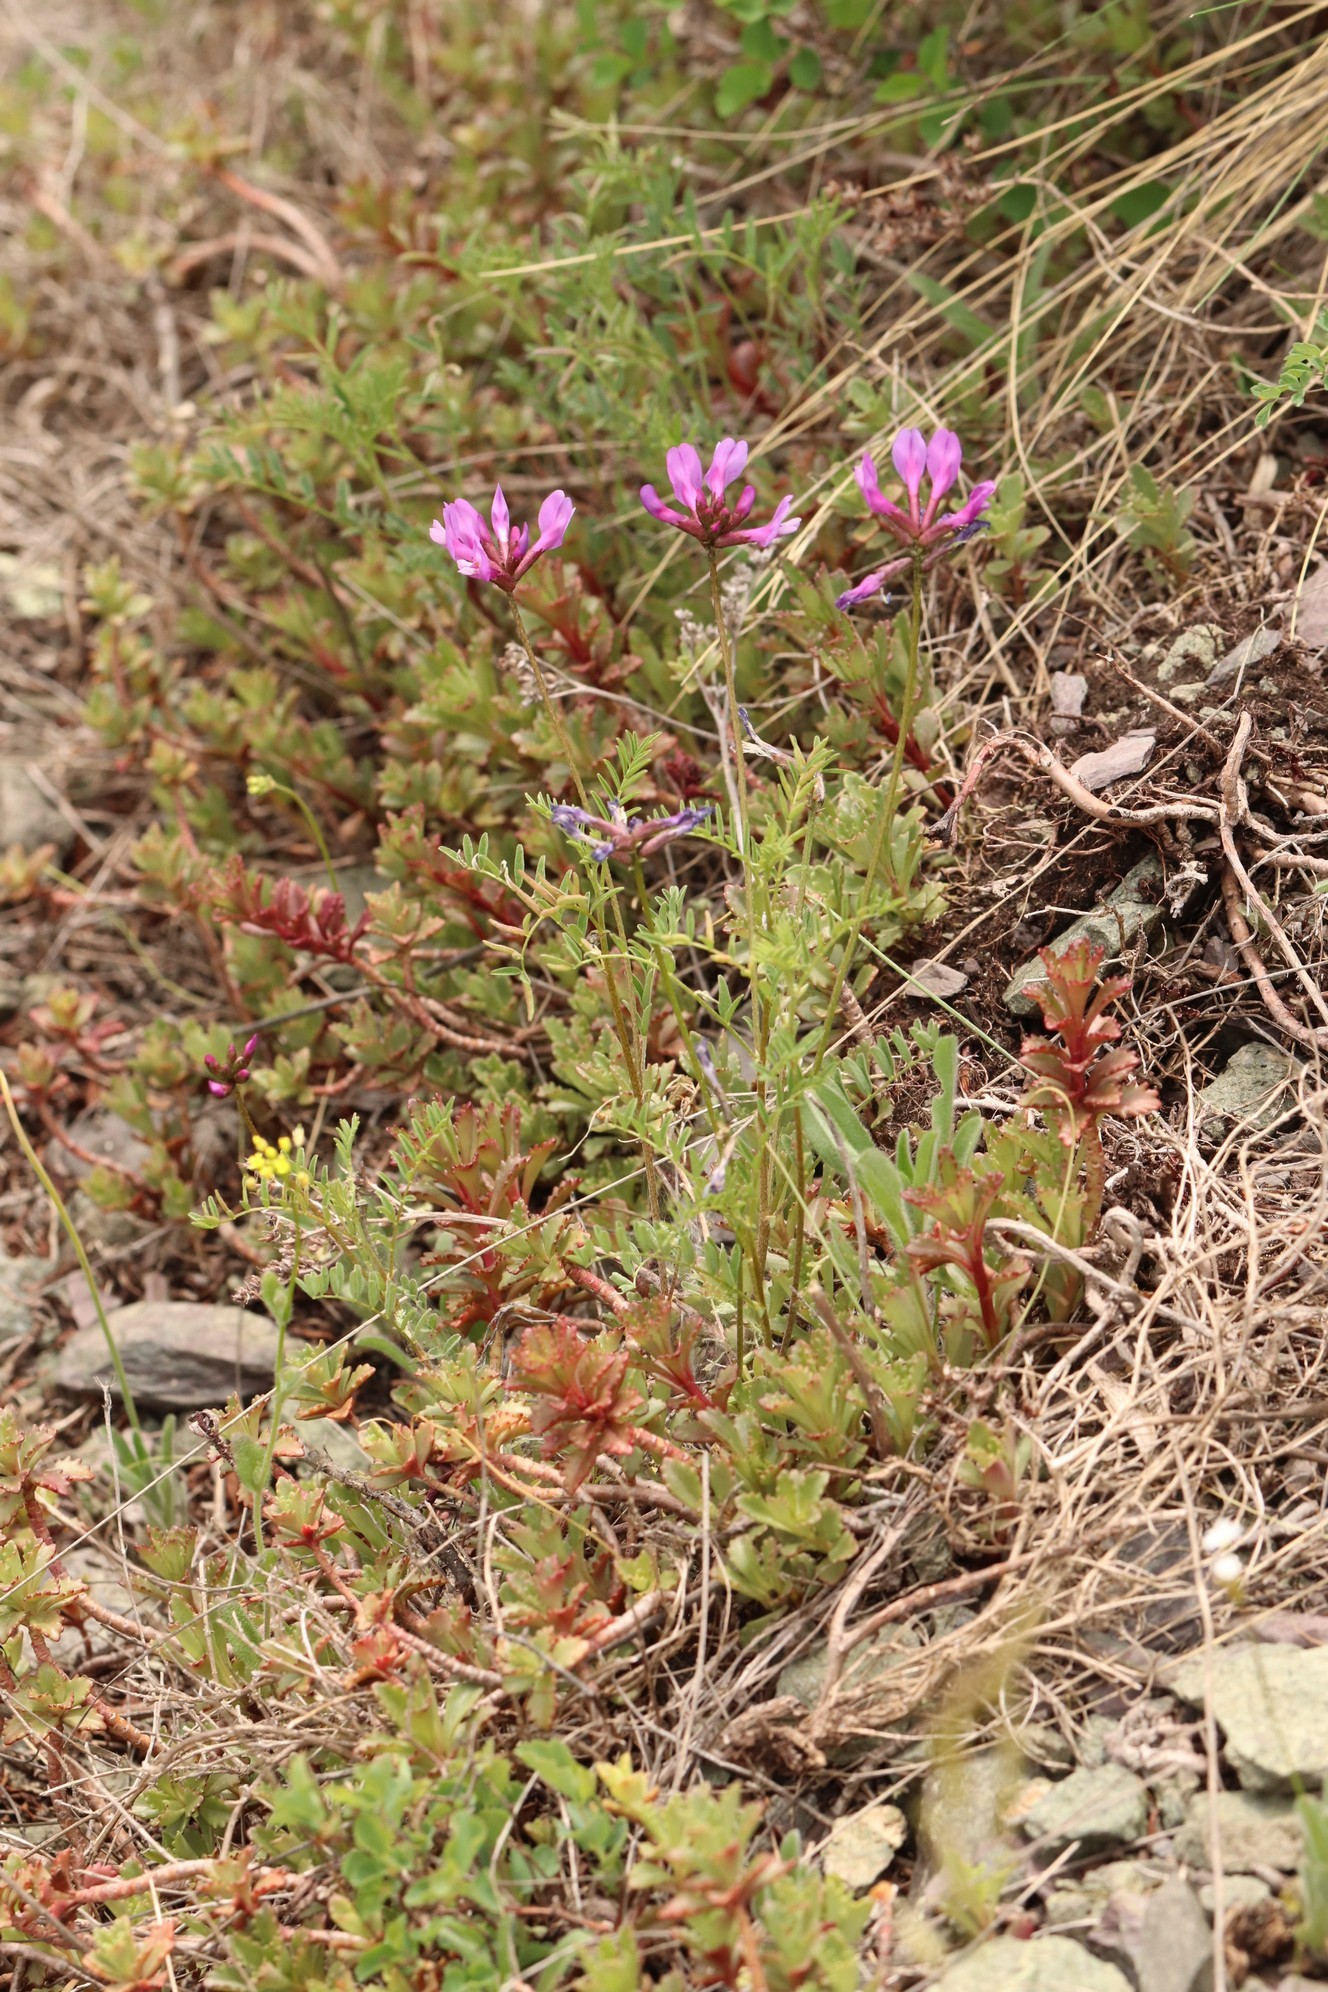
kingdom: Plantae
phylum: Tracheophyta
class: Magnoliopsida
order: Fabales
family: Fabaceae
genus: Astragalus
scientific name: Astragalus ceratoides
